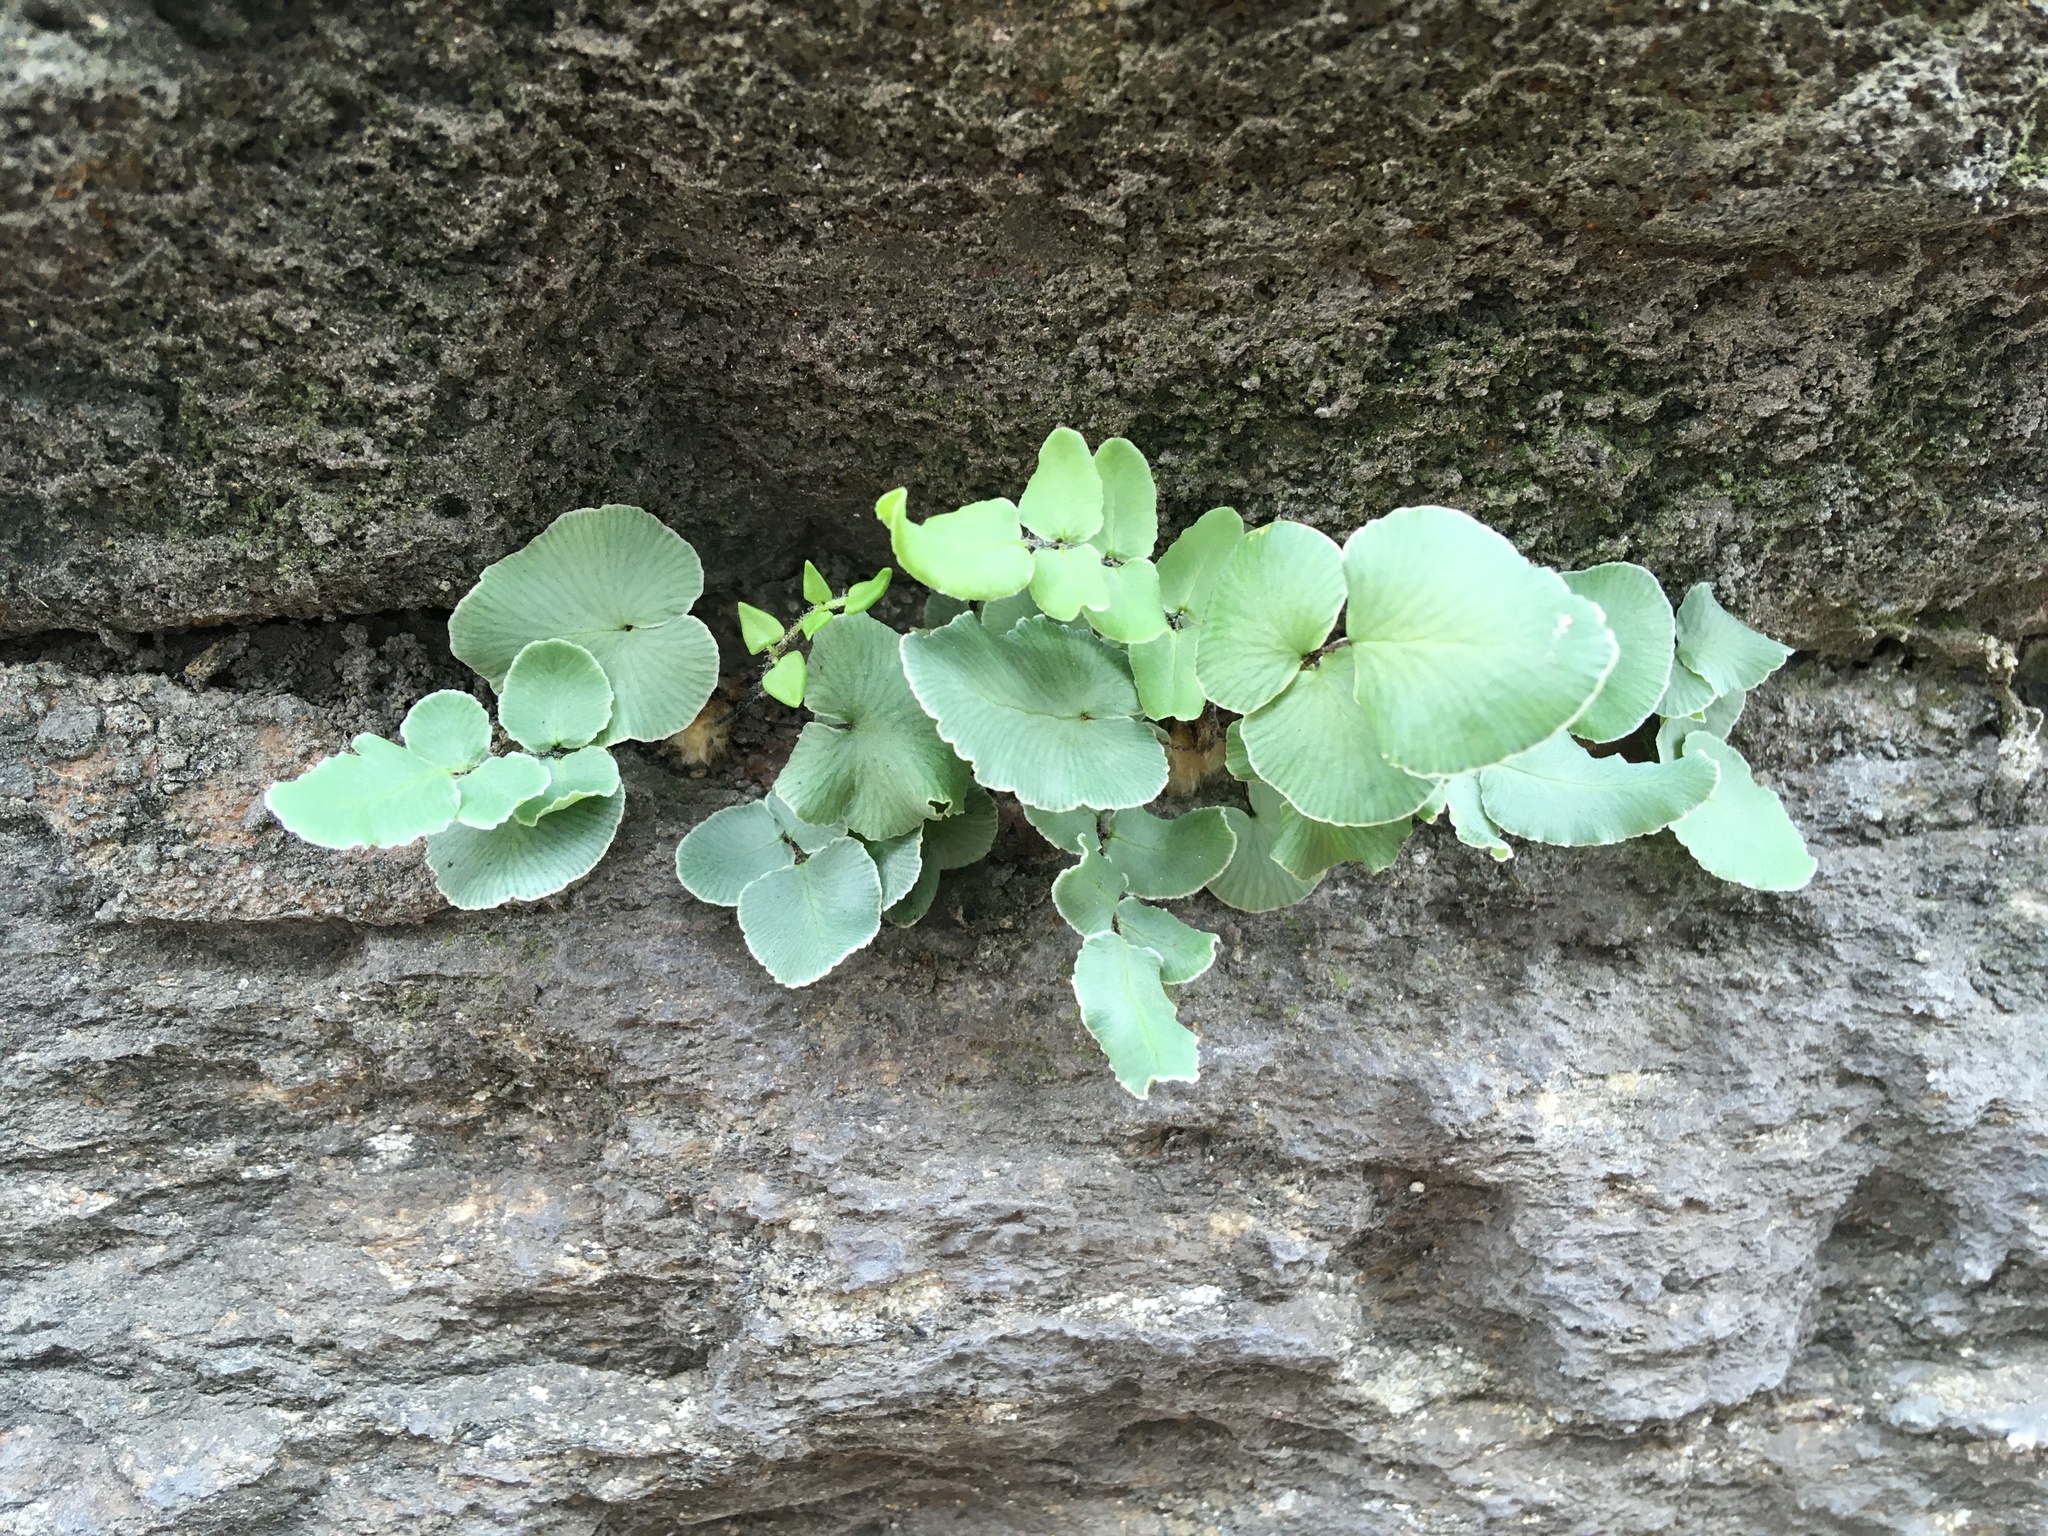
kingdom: Plantae
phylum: Tracheophyta
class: Polypodiopsida
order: Polypodiales
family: Pteridaceae
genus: Pellaea
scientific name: Pellaea atropurpurea
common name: Hairy cliffbrake
